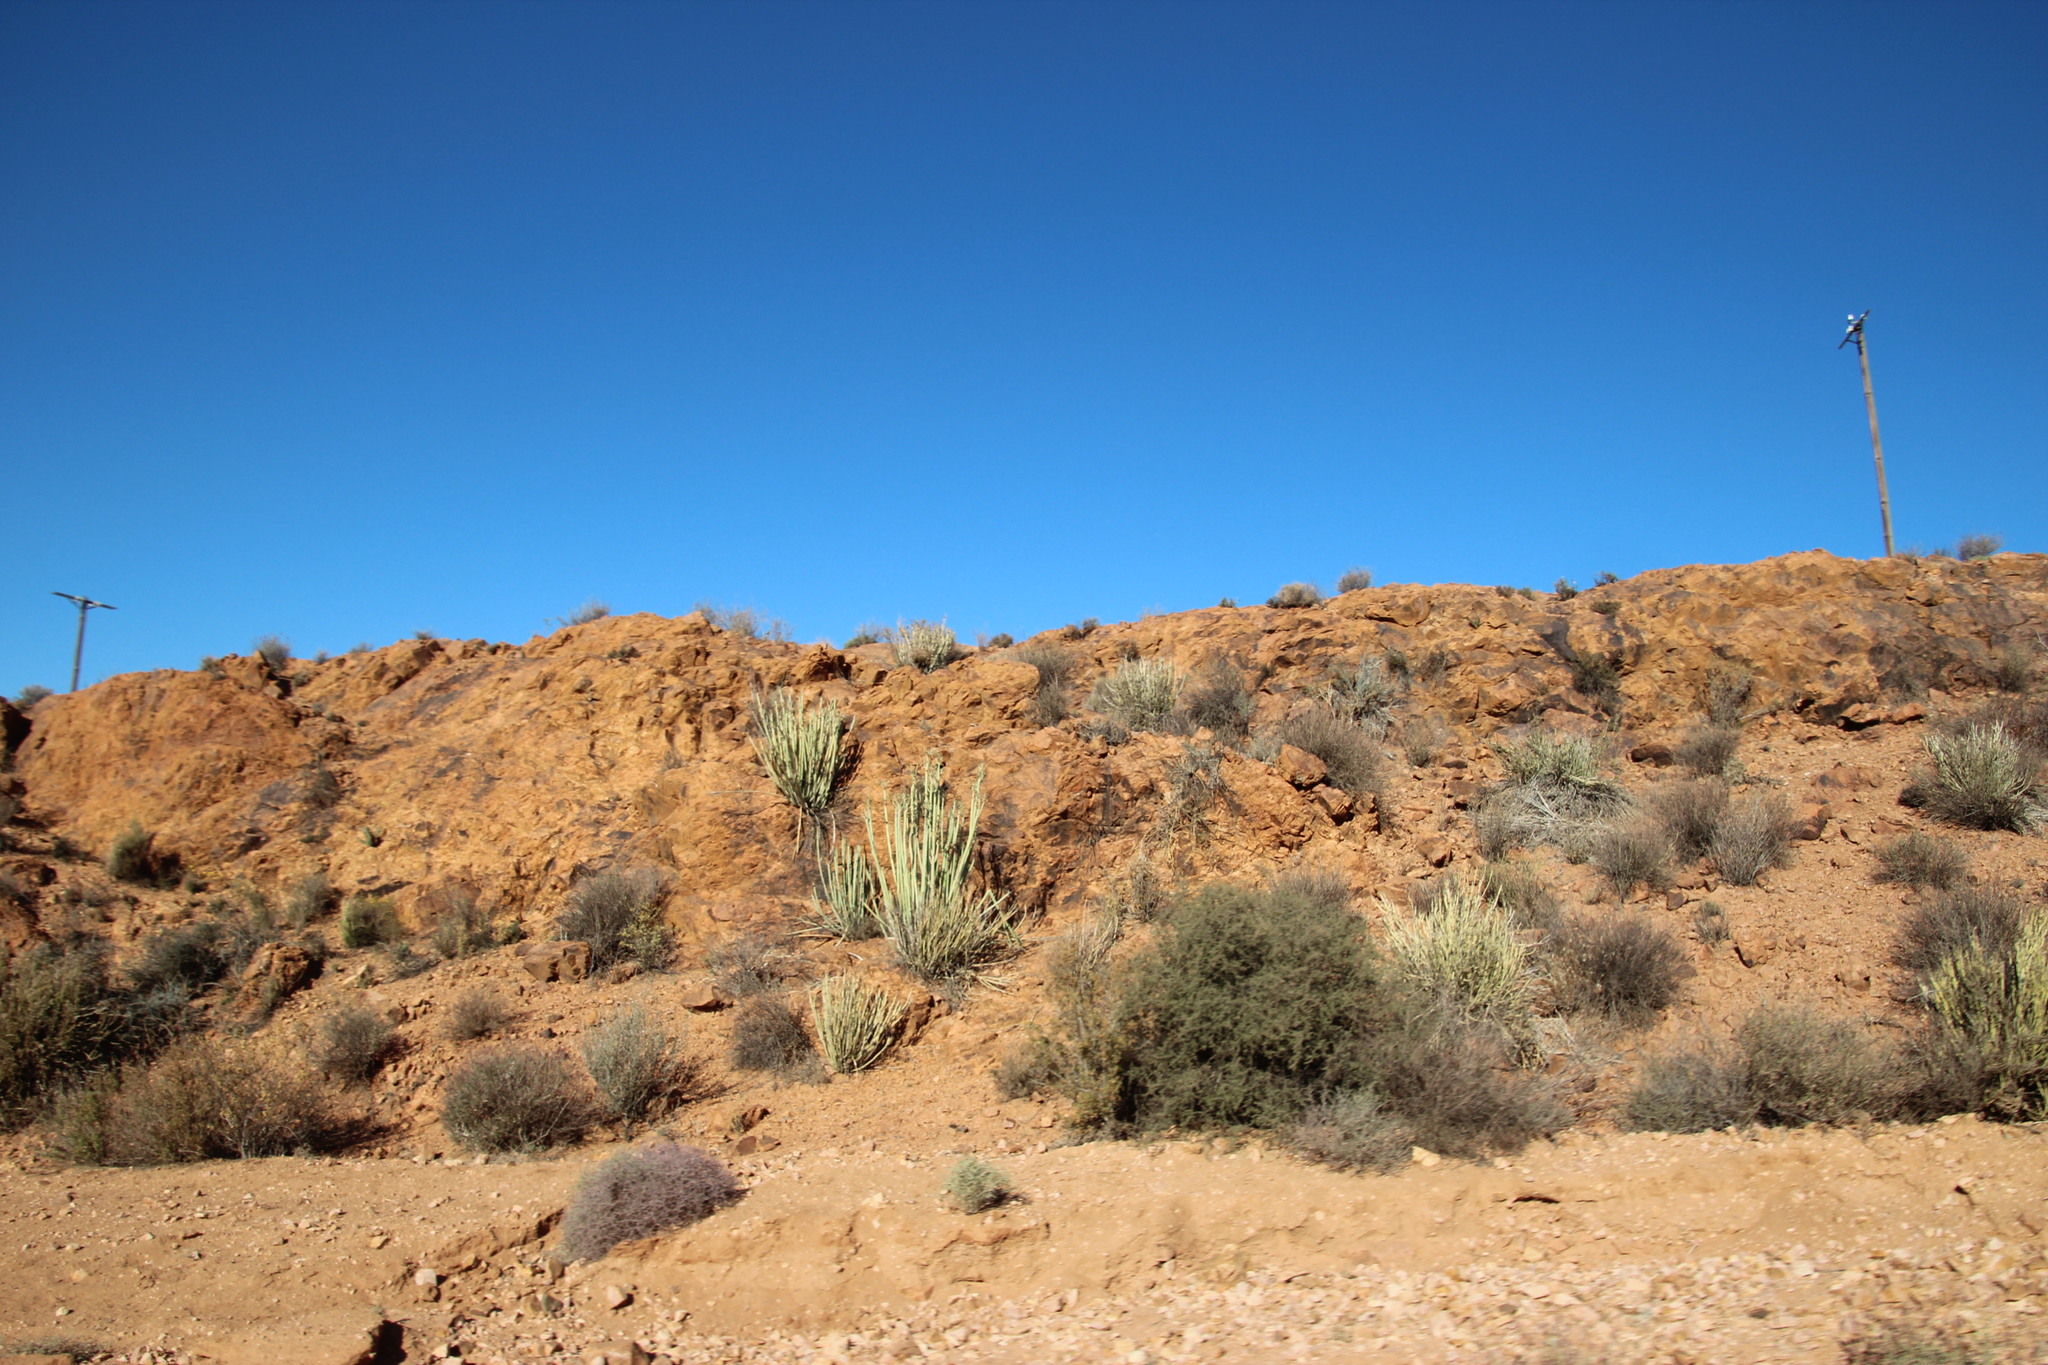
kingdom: Plantae
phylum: Tracheophyta
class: Magnoliopsida
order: Malpighiales
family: Euphorbiaceae
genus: Euphorbia
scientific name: Euphorbia dregeana
